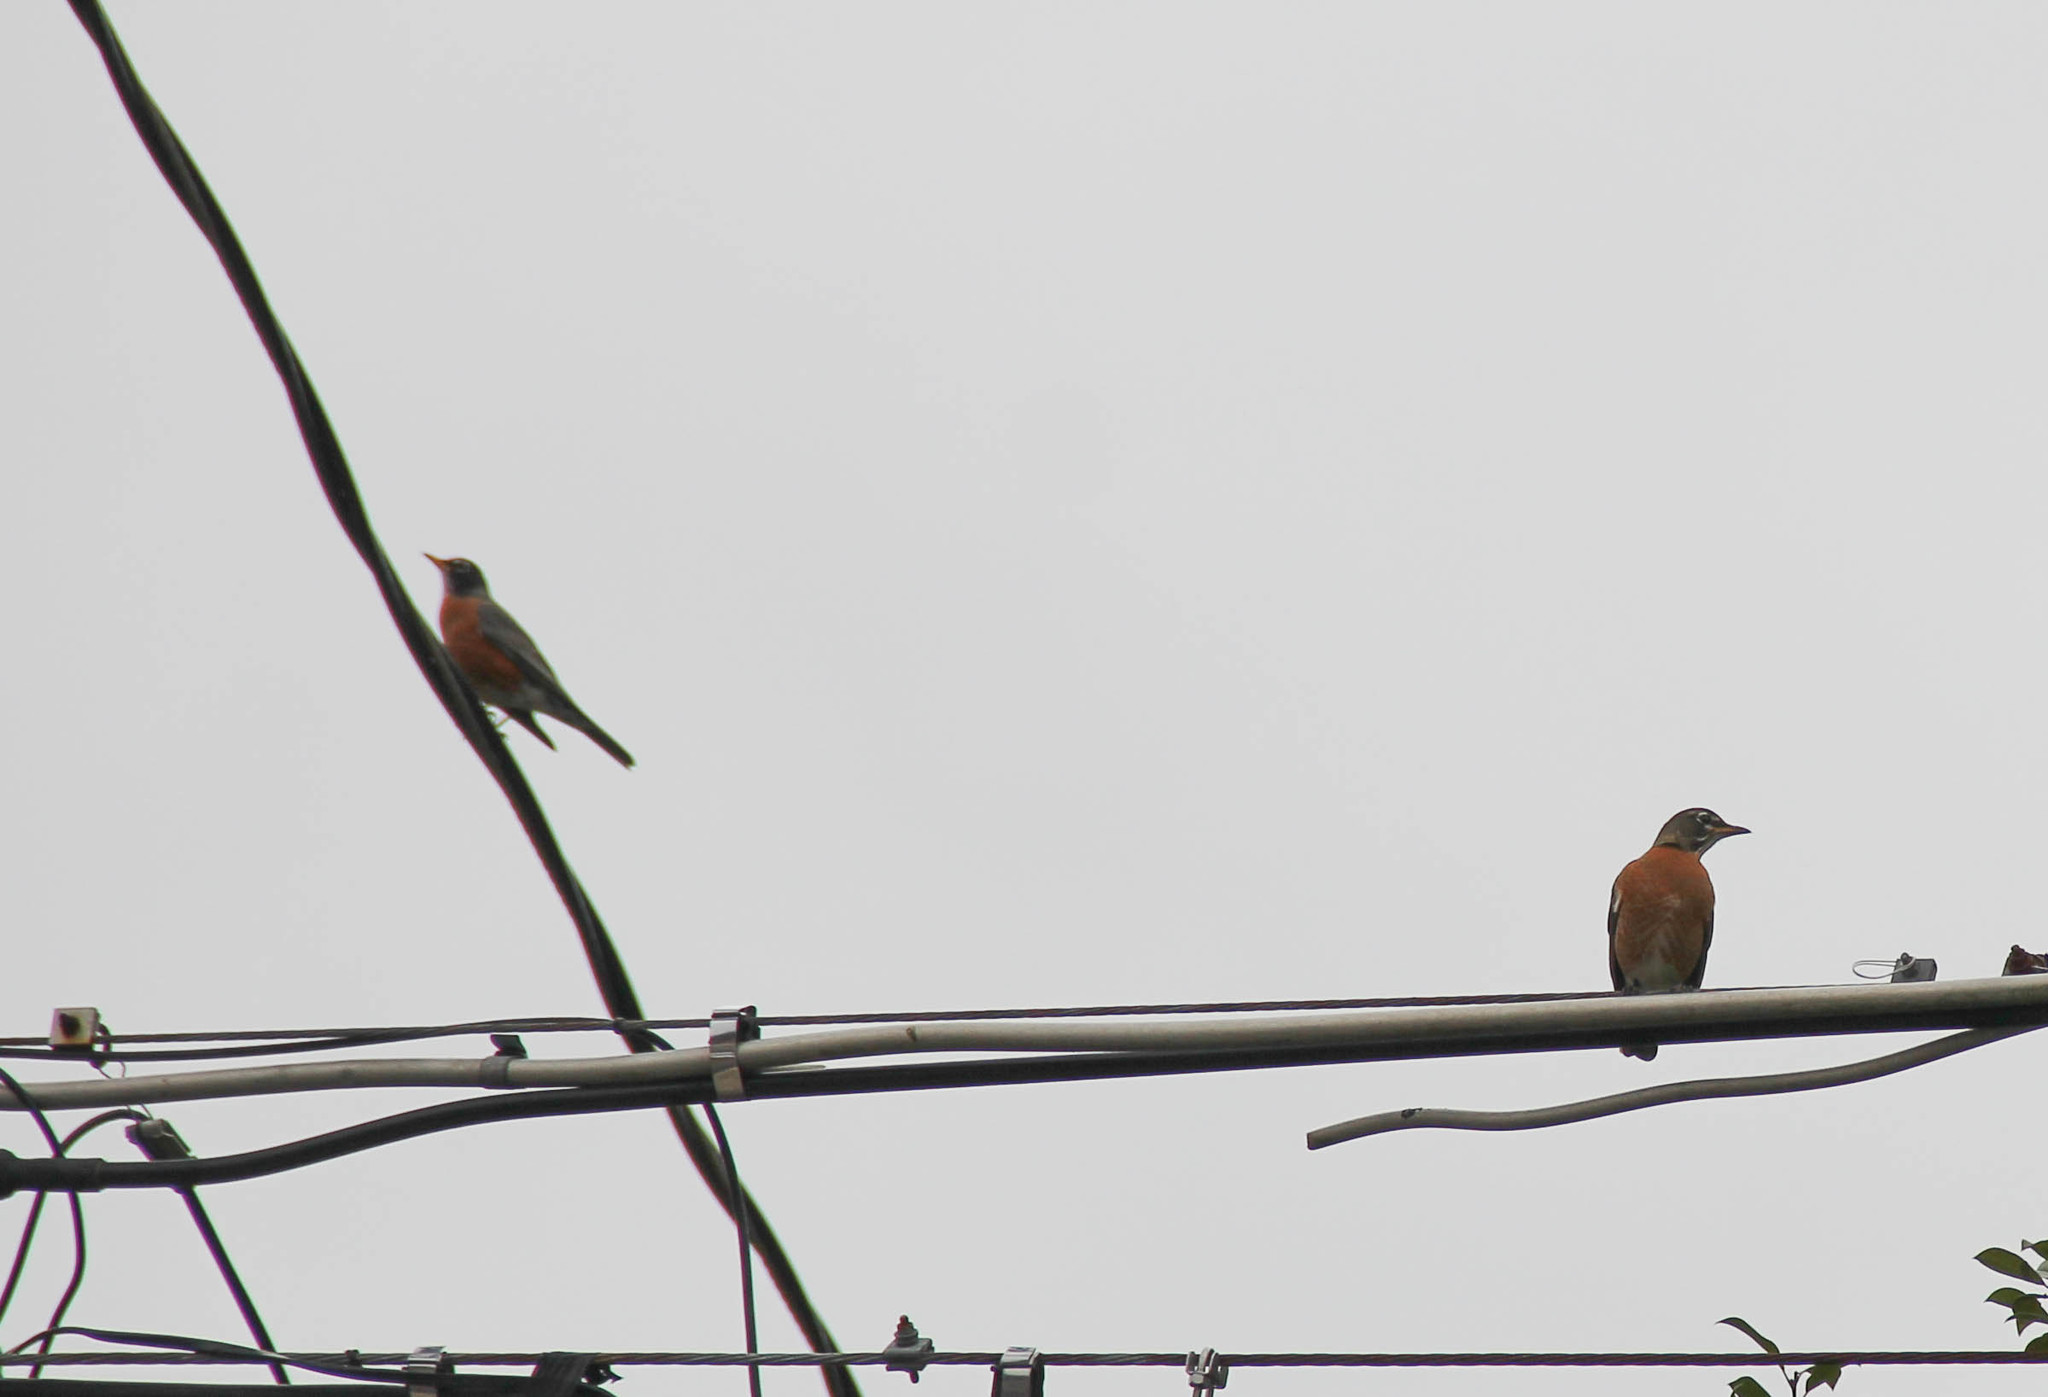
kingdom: Animalia
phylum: Chordata
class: Aves
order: Passeriformes
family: Turdidae
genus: Turdus
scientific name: Turdus migratorius
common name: American robin
